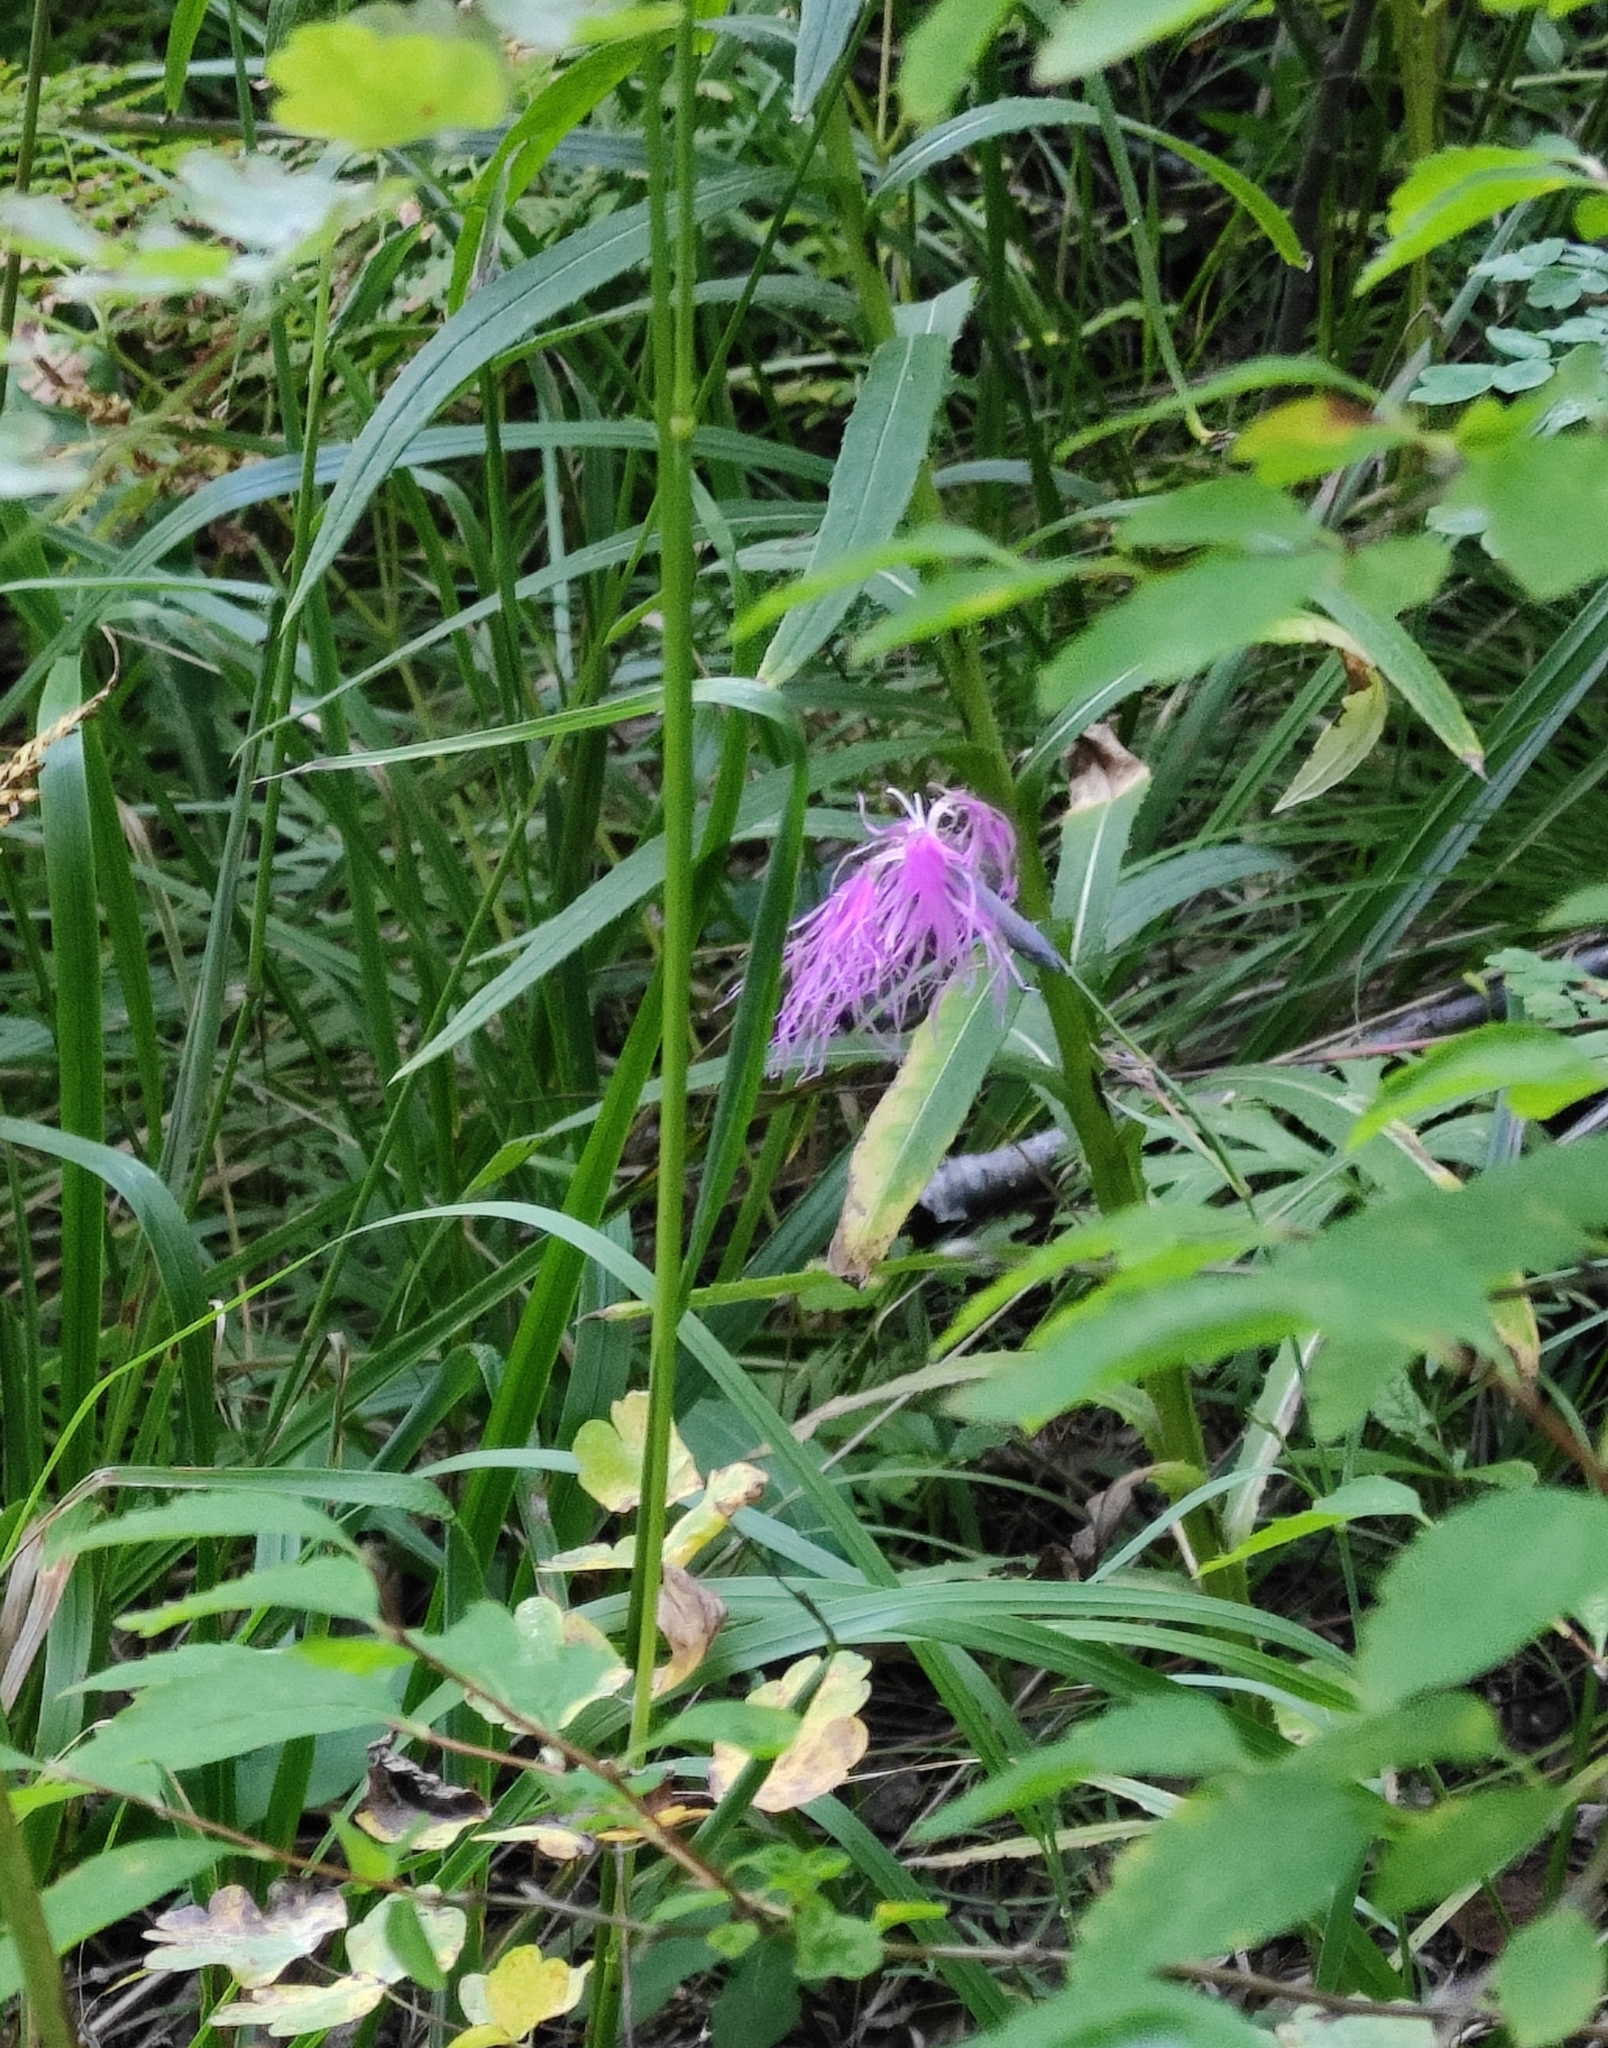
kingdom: Plantae
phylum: Tracheophyta
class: Magnoliopsida
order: Caryophyllales
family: Caryophyllaceae
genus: Dianthus
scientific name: Dianthus superbus
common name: Fringed pink
